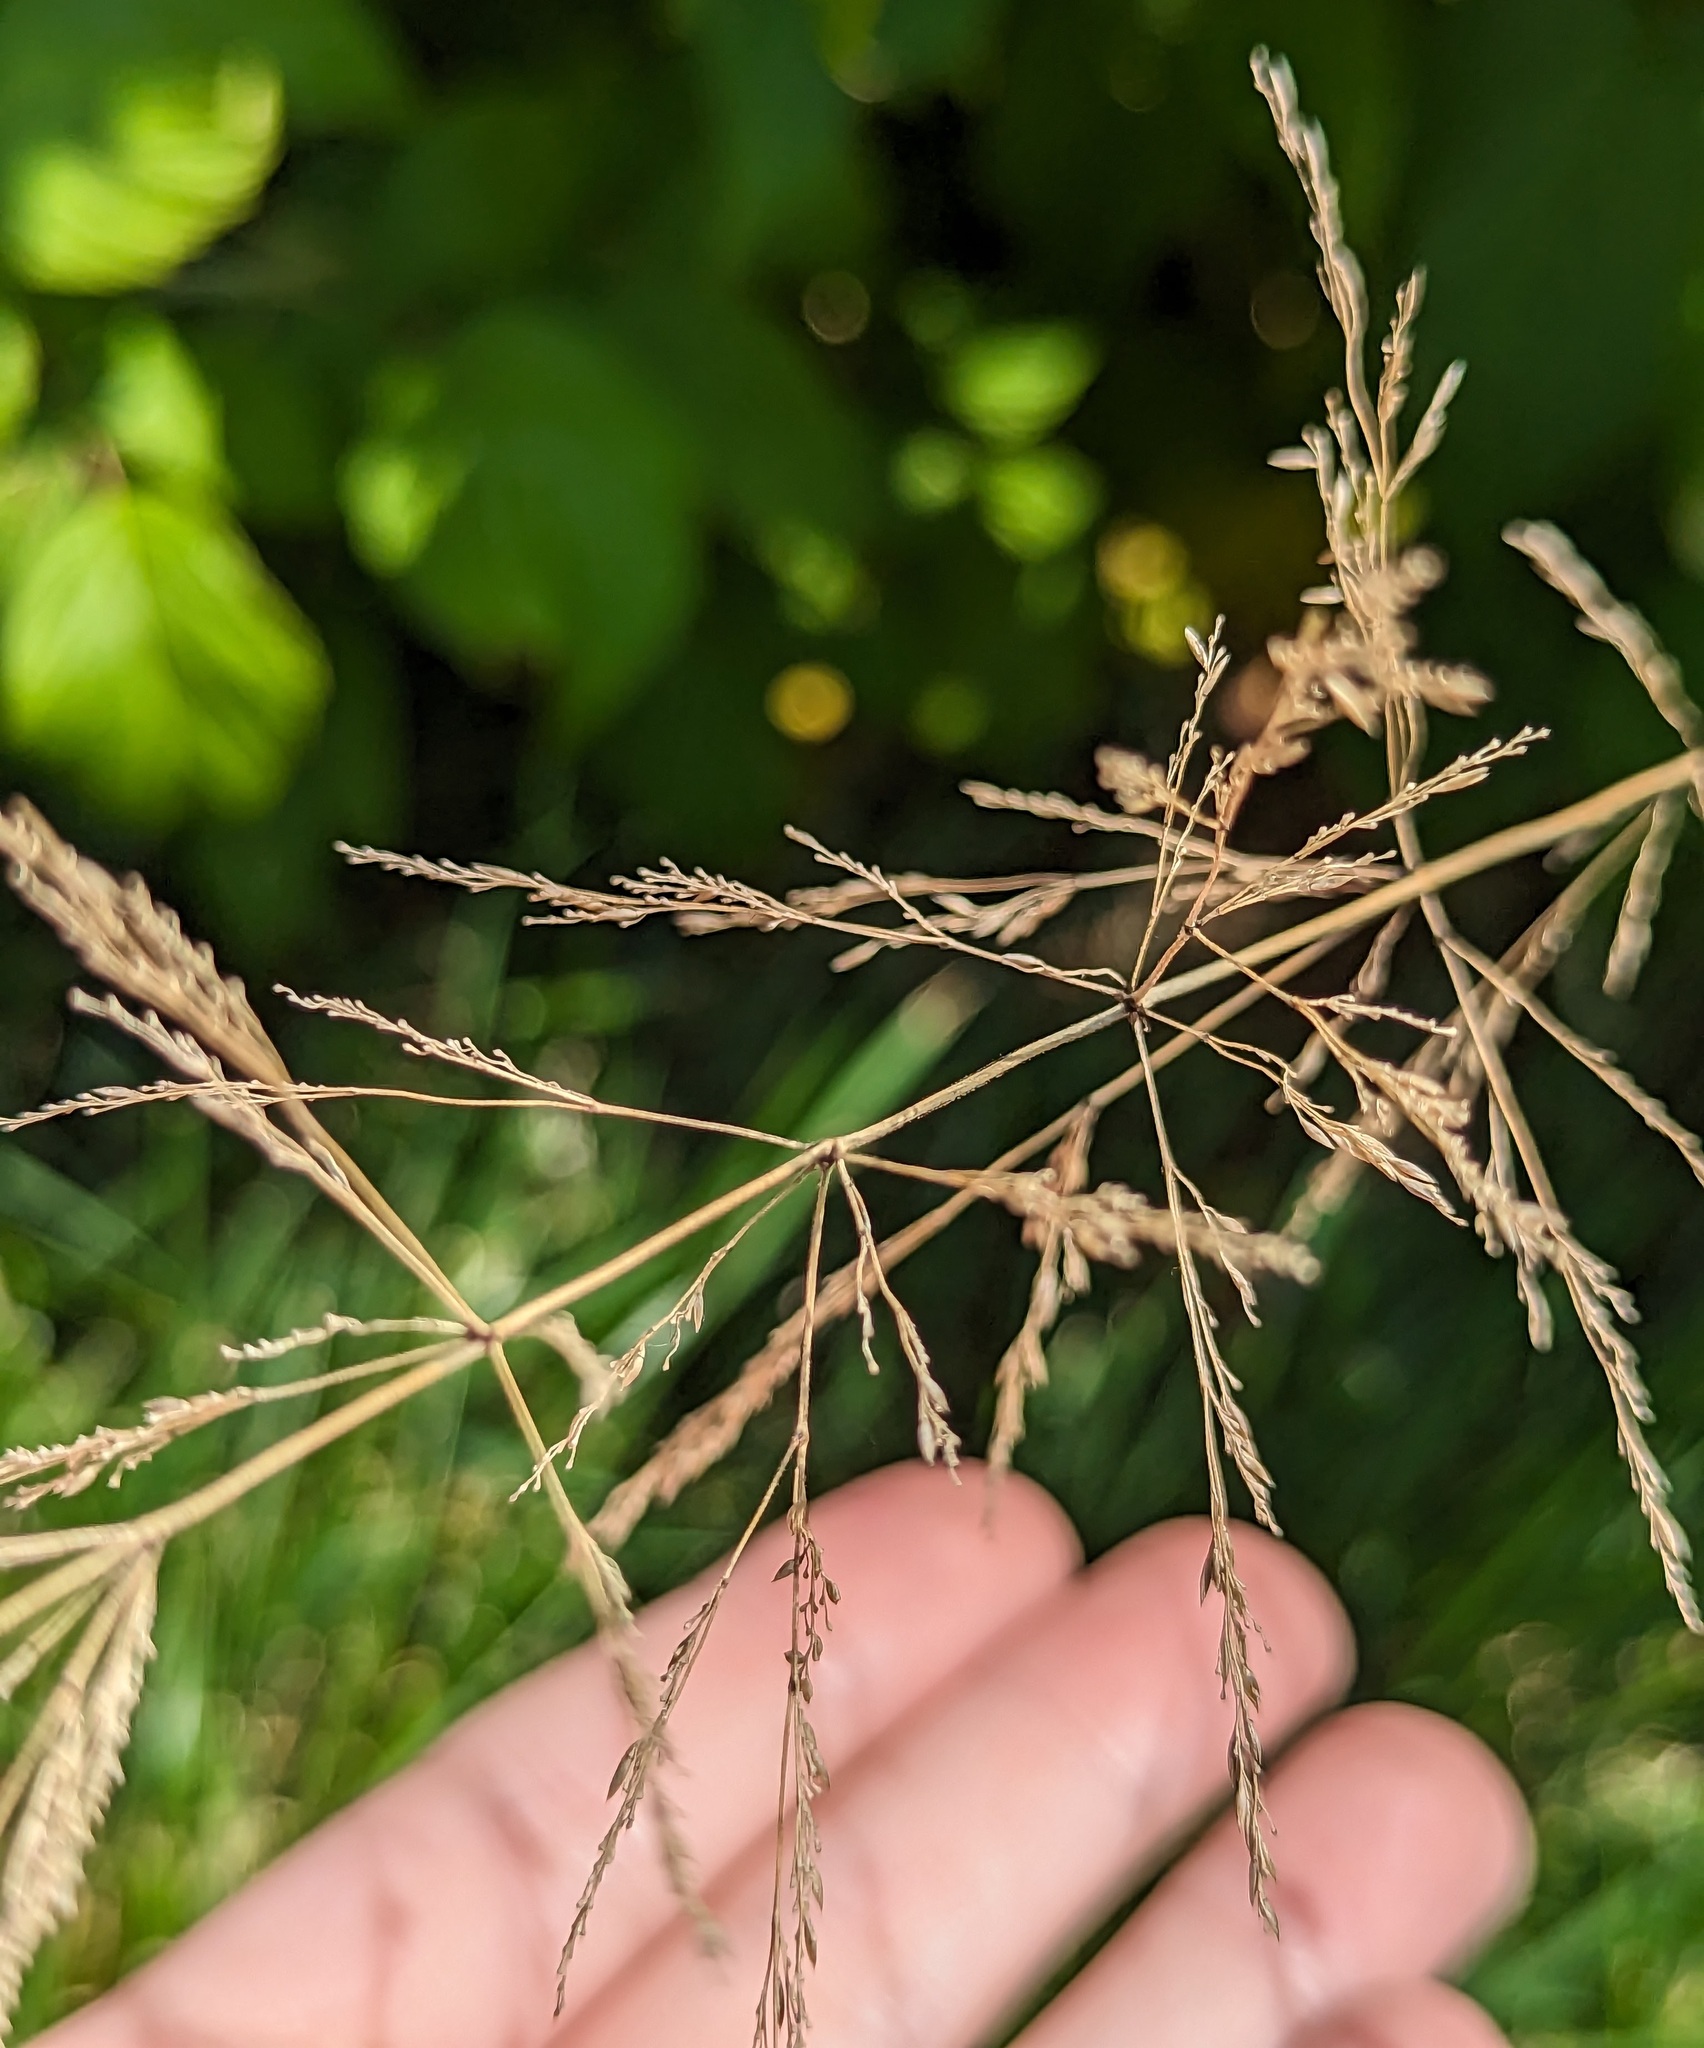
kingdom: Plantae
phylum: Tracheophyta
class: Liliopsida
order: Poales
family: Poaceae
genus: Agrostis
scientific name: Agrostis gigantea
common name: Black bent
